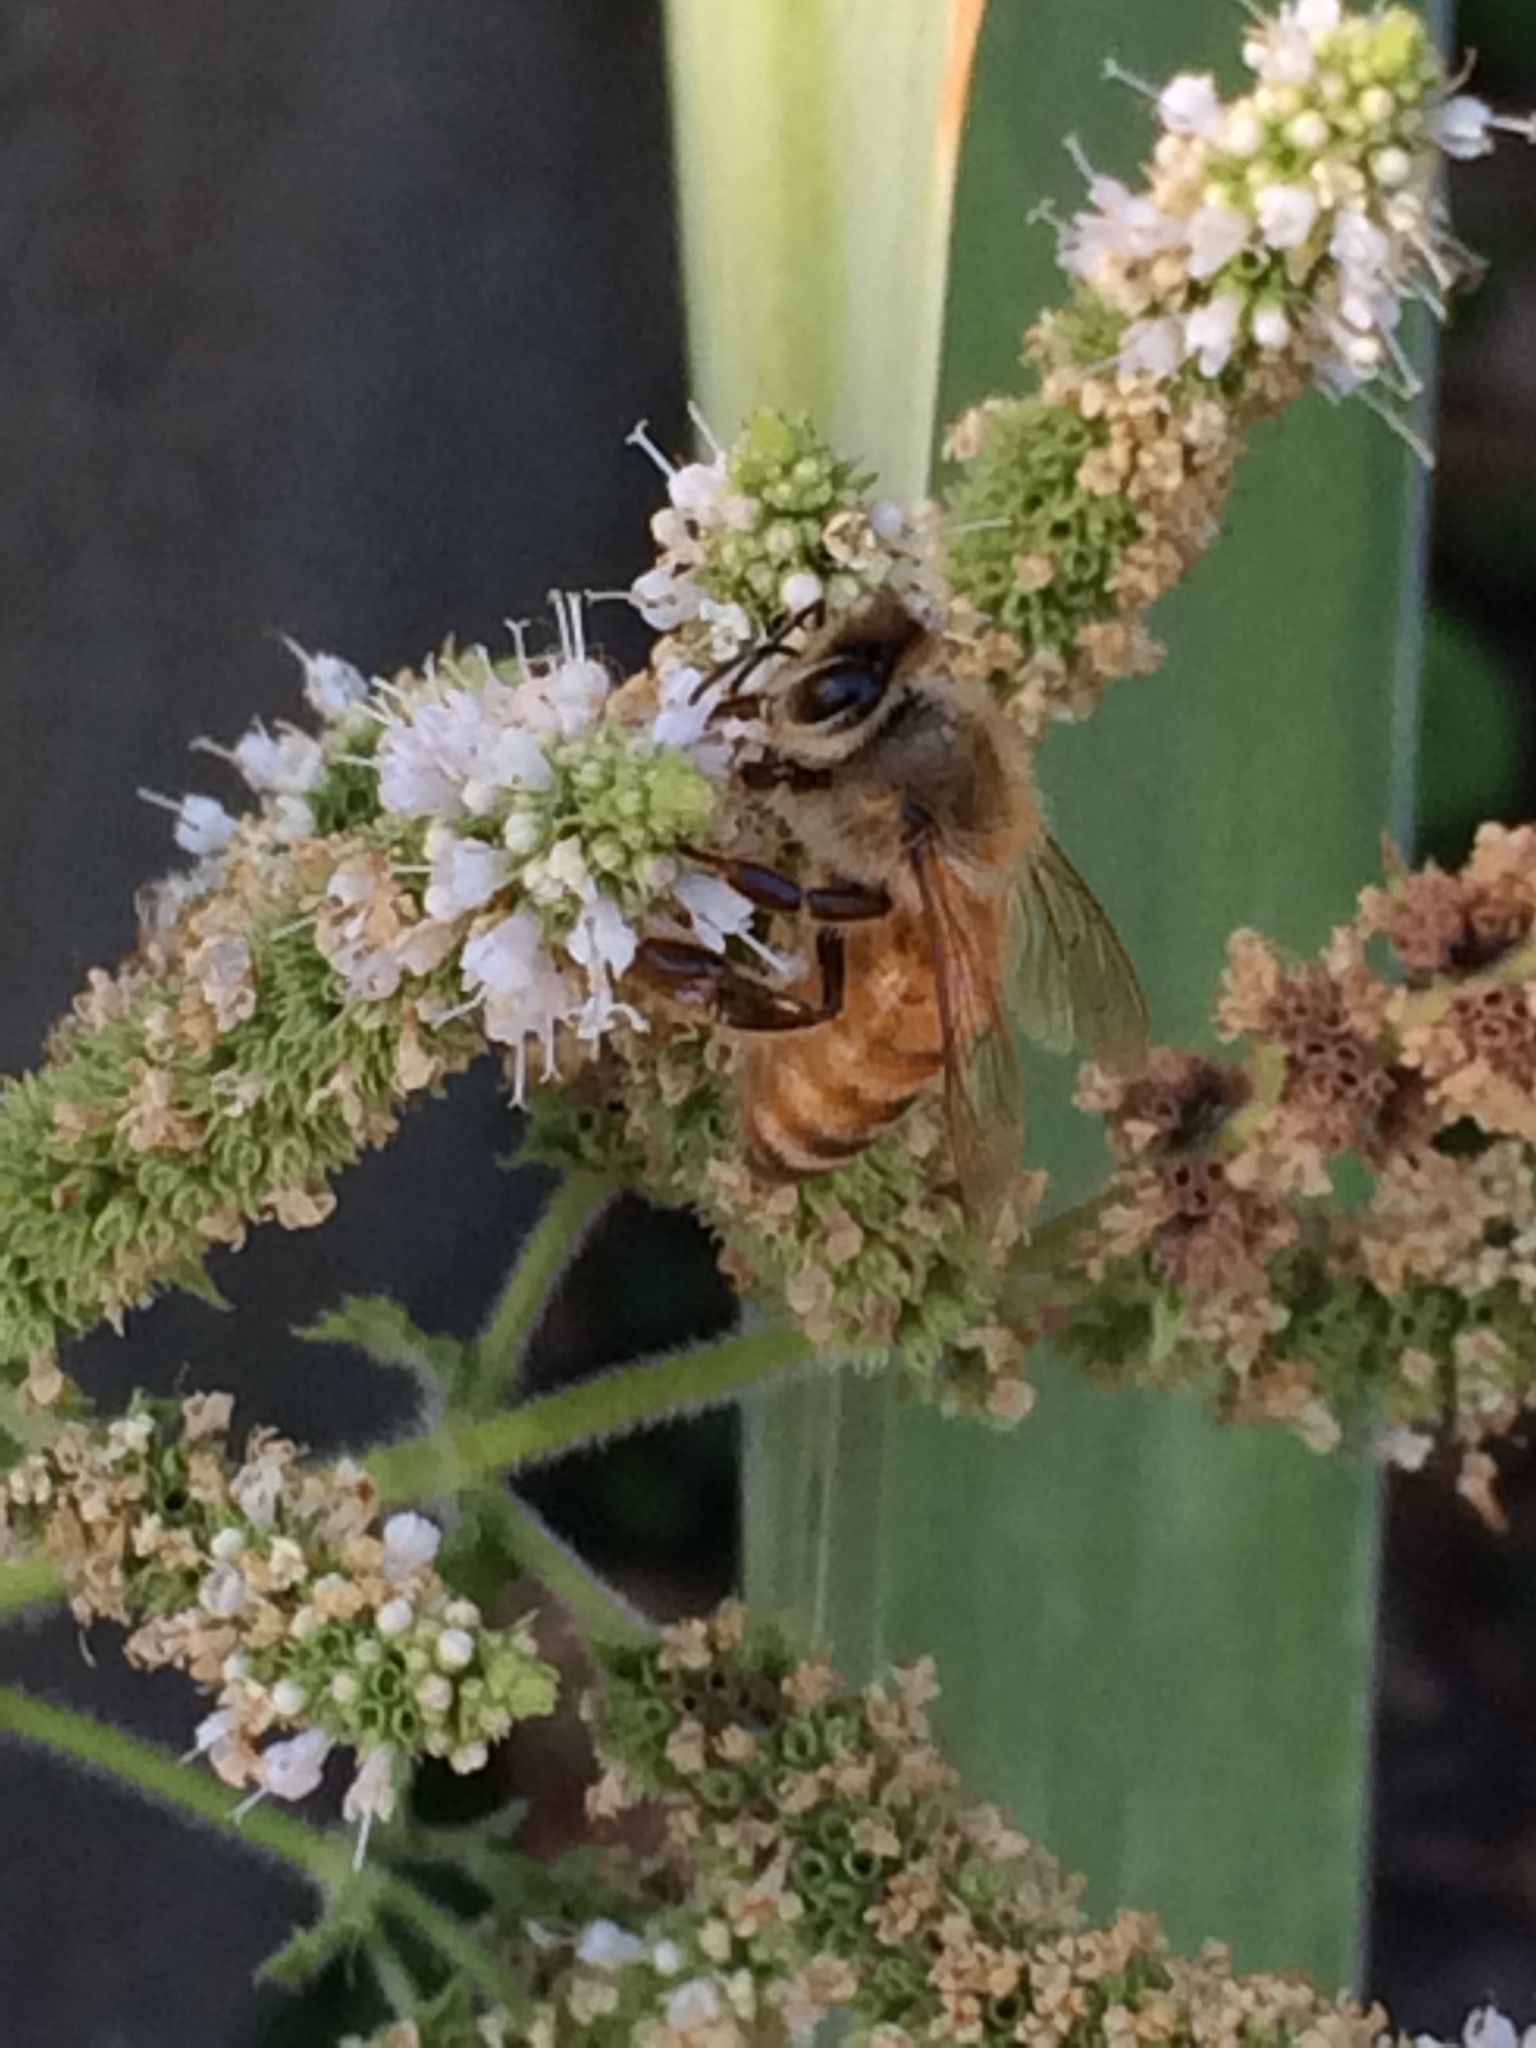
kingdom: Animalia
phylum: Arthropoda
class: Insecta
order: Hymenoptera
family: Apidae
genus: Apis
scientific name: Apis mellifera
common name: Honey bee
